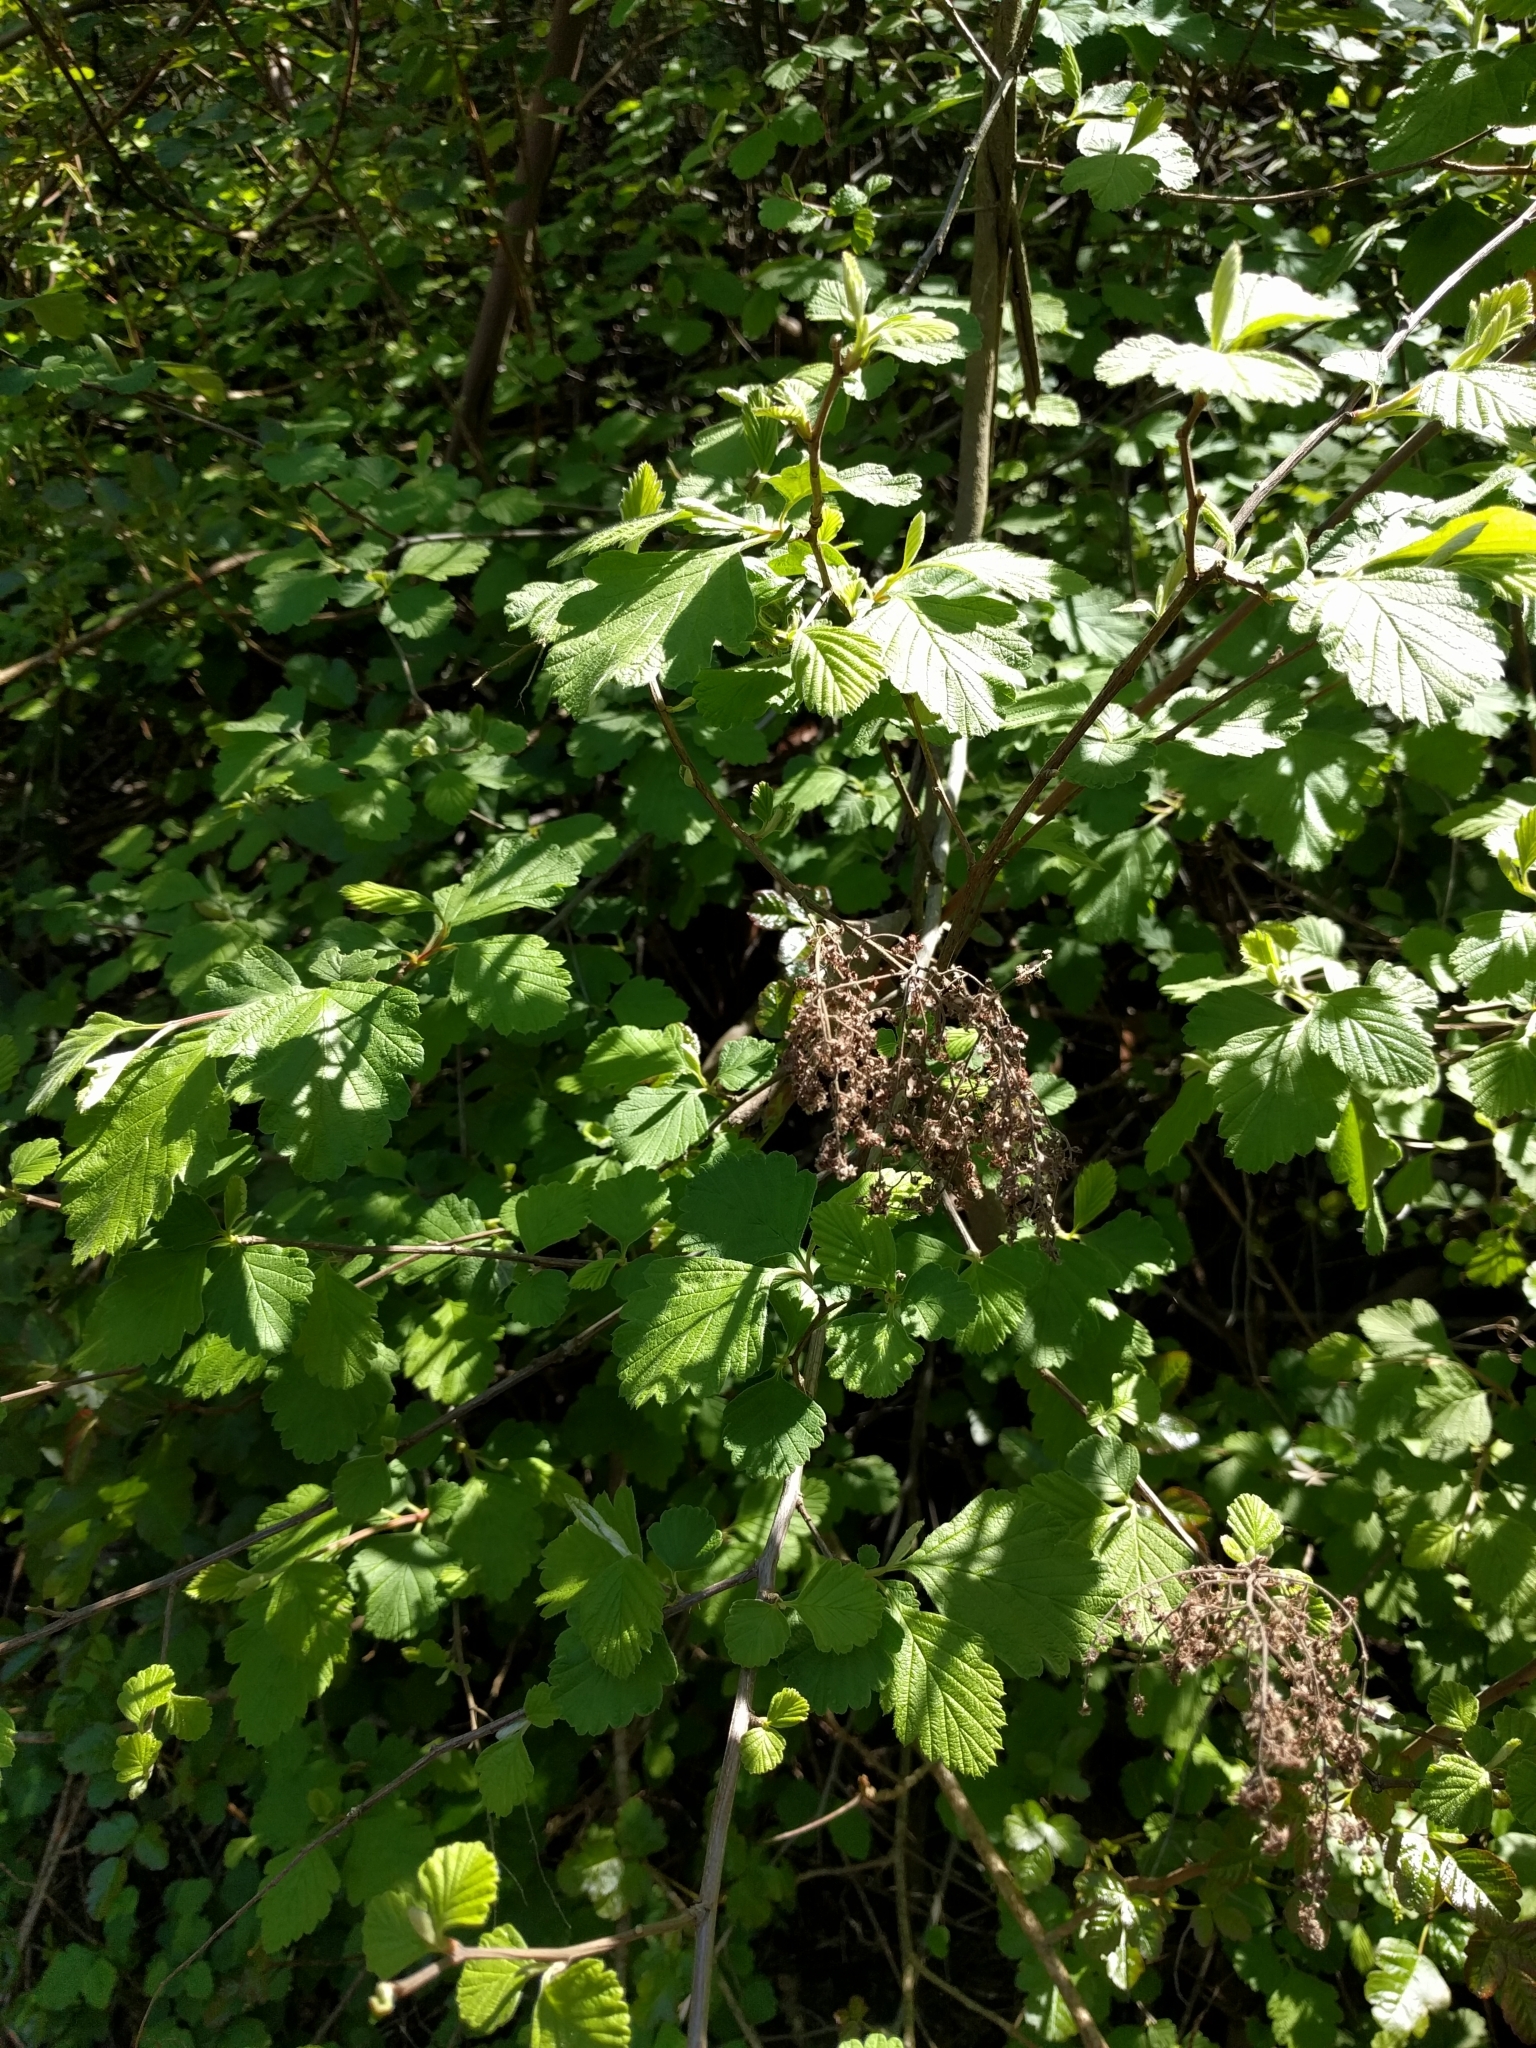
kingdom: Plantae
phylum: Tracheophyta
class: Magnoliopsida
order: Rosales
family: Rosaceae
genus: Holodiscus
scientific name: Holodiscus discolor
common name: Oceanspray
